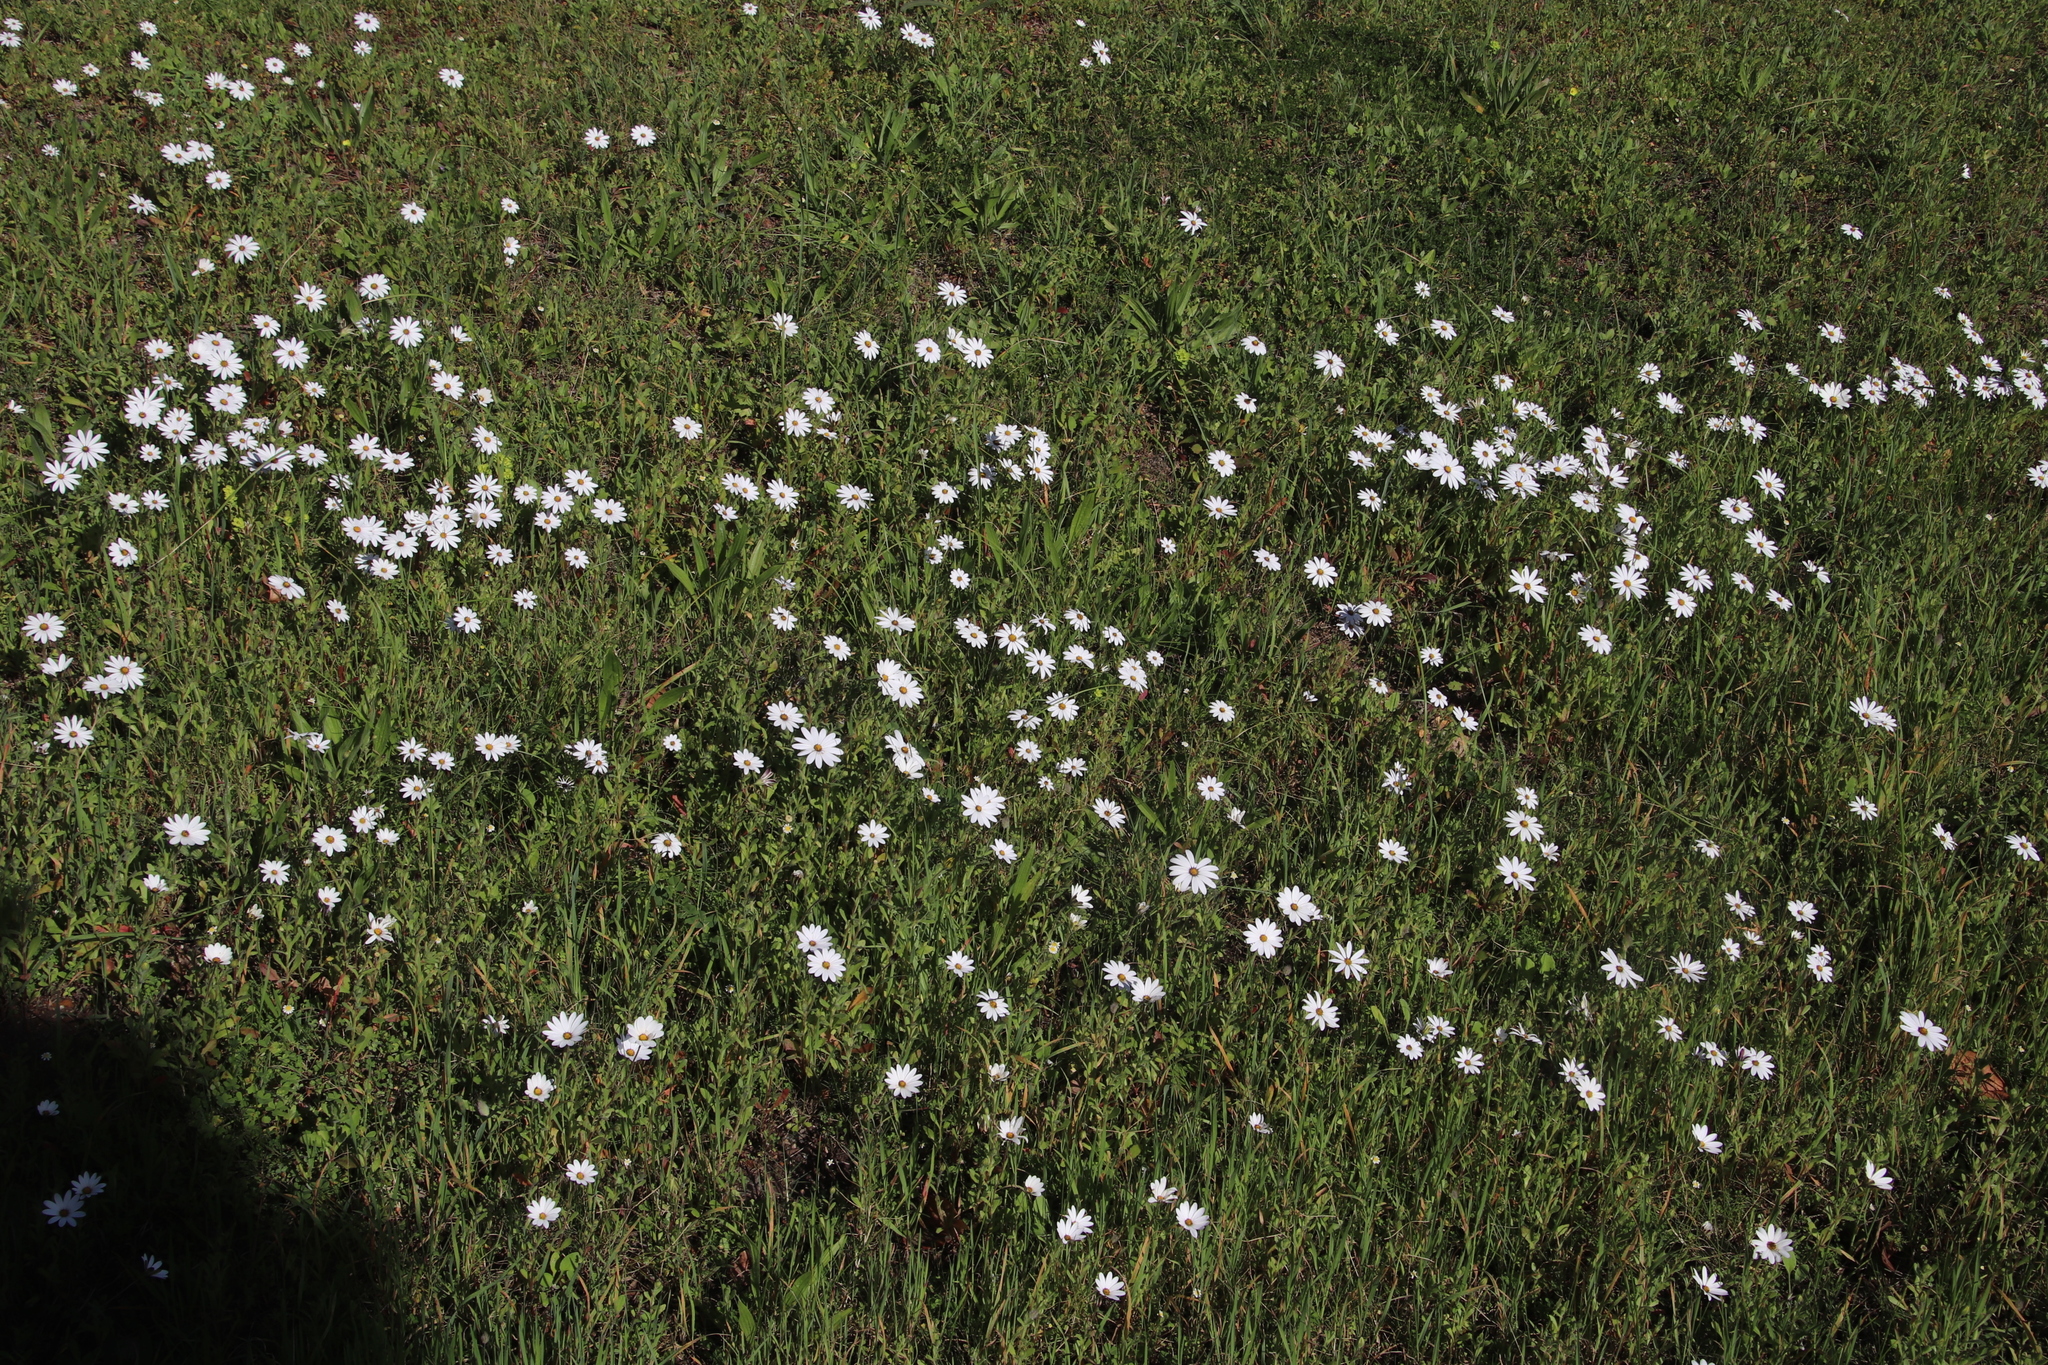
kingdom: Plantae
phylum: Tracheophyta
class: Magnoliopsida
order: Asterales
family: Asteraceae
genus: Dimorphotheca
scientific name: Dimorphotheca pluvialis
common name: Weather prophet
